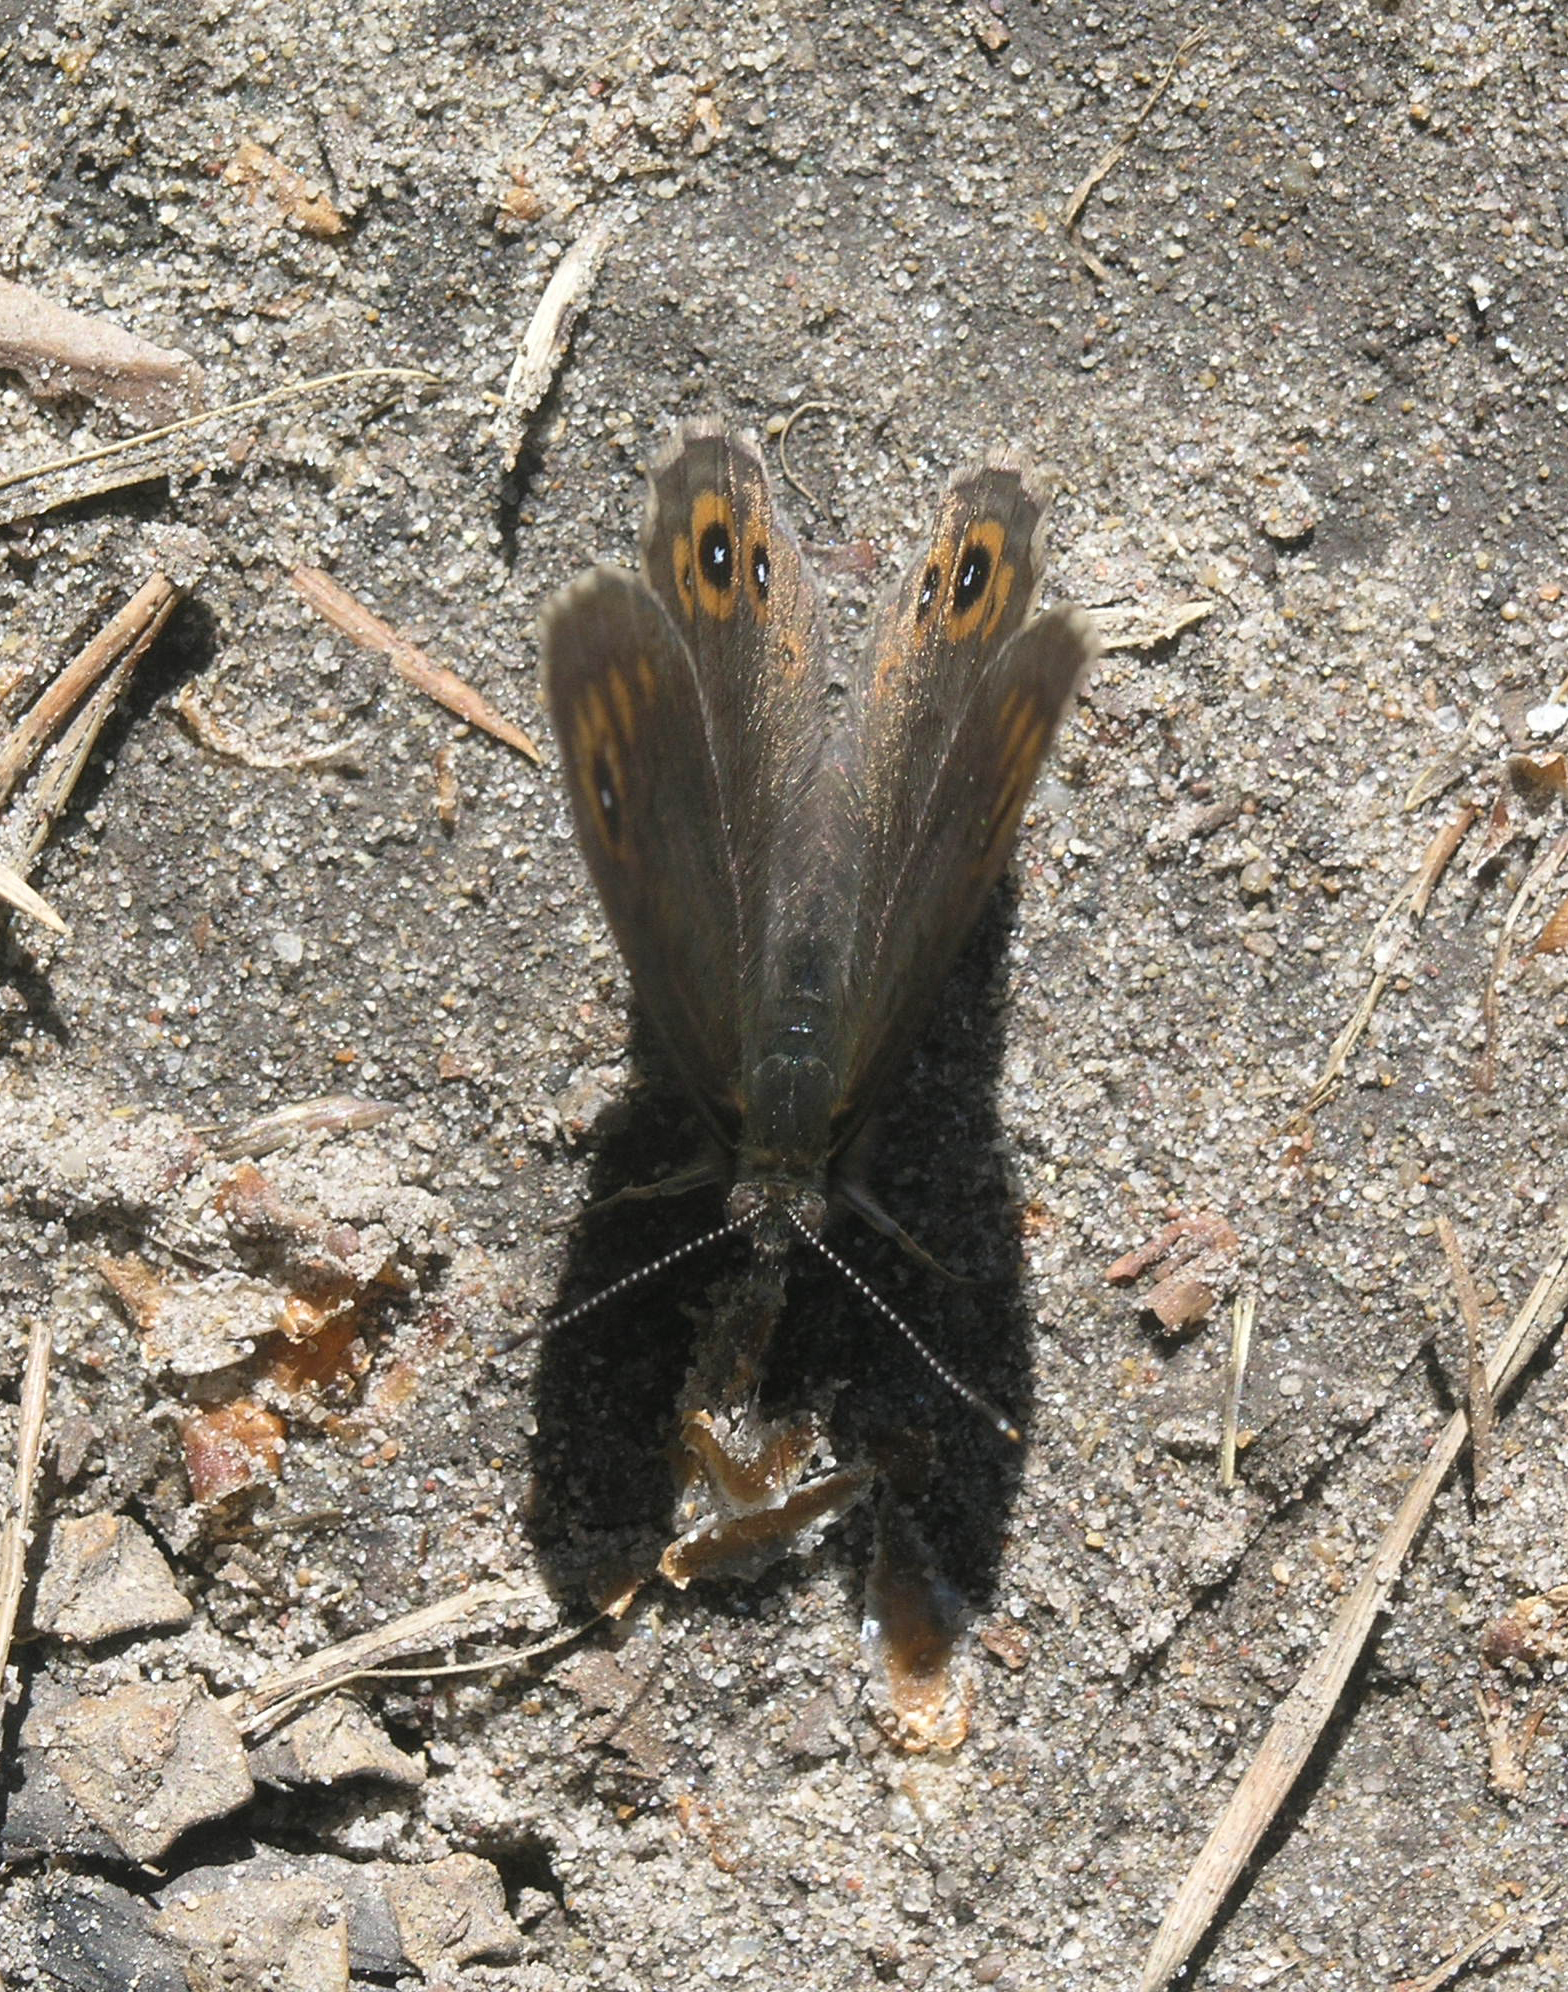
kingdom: Animalia
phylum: Arthropoda
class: Insecta
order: Lepidoptera
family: Nymphalidae
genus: Pararge
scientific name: Pararge petropolitana
